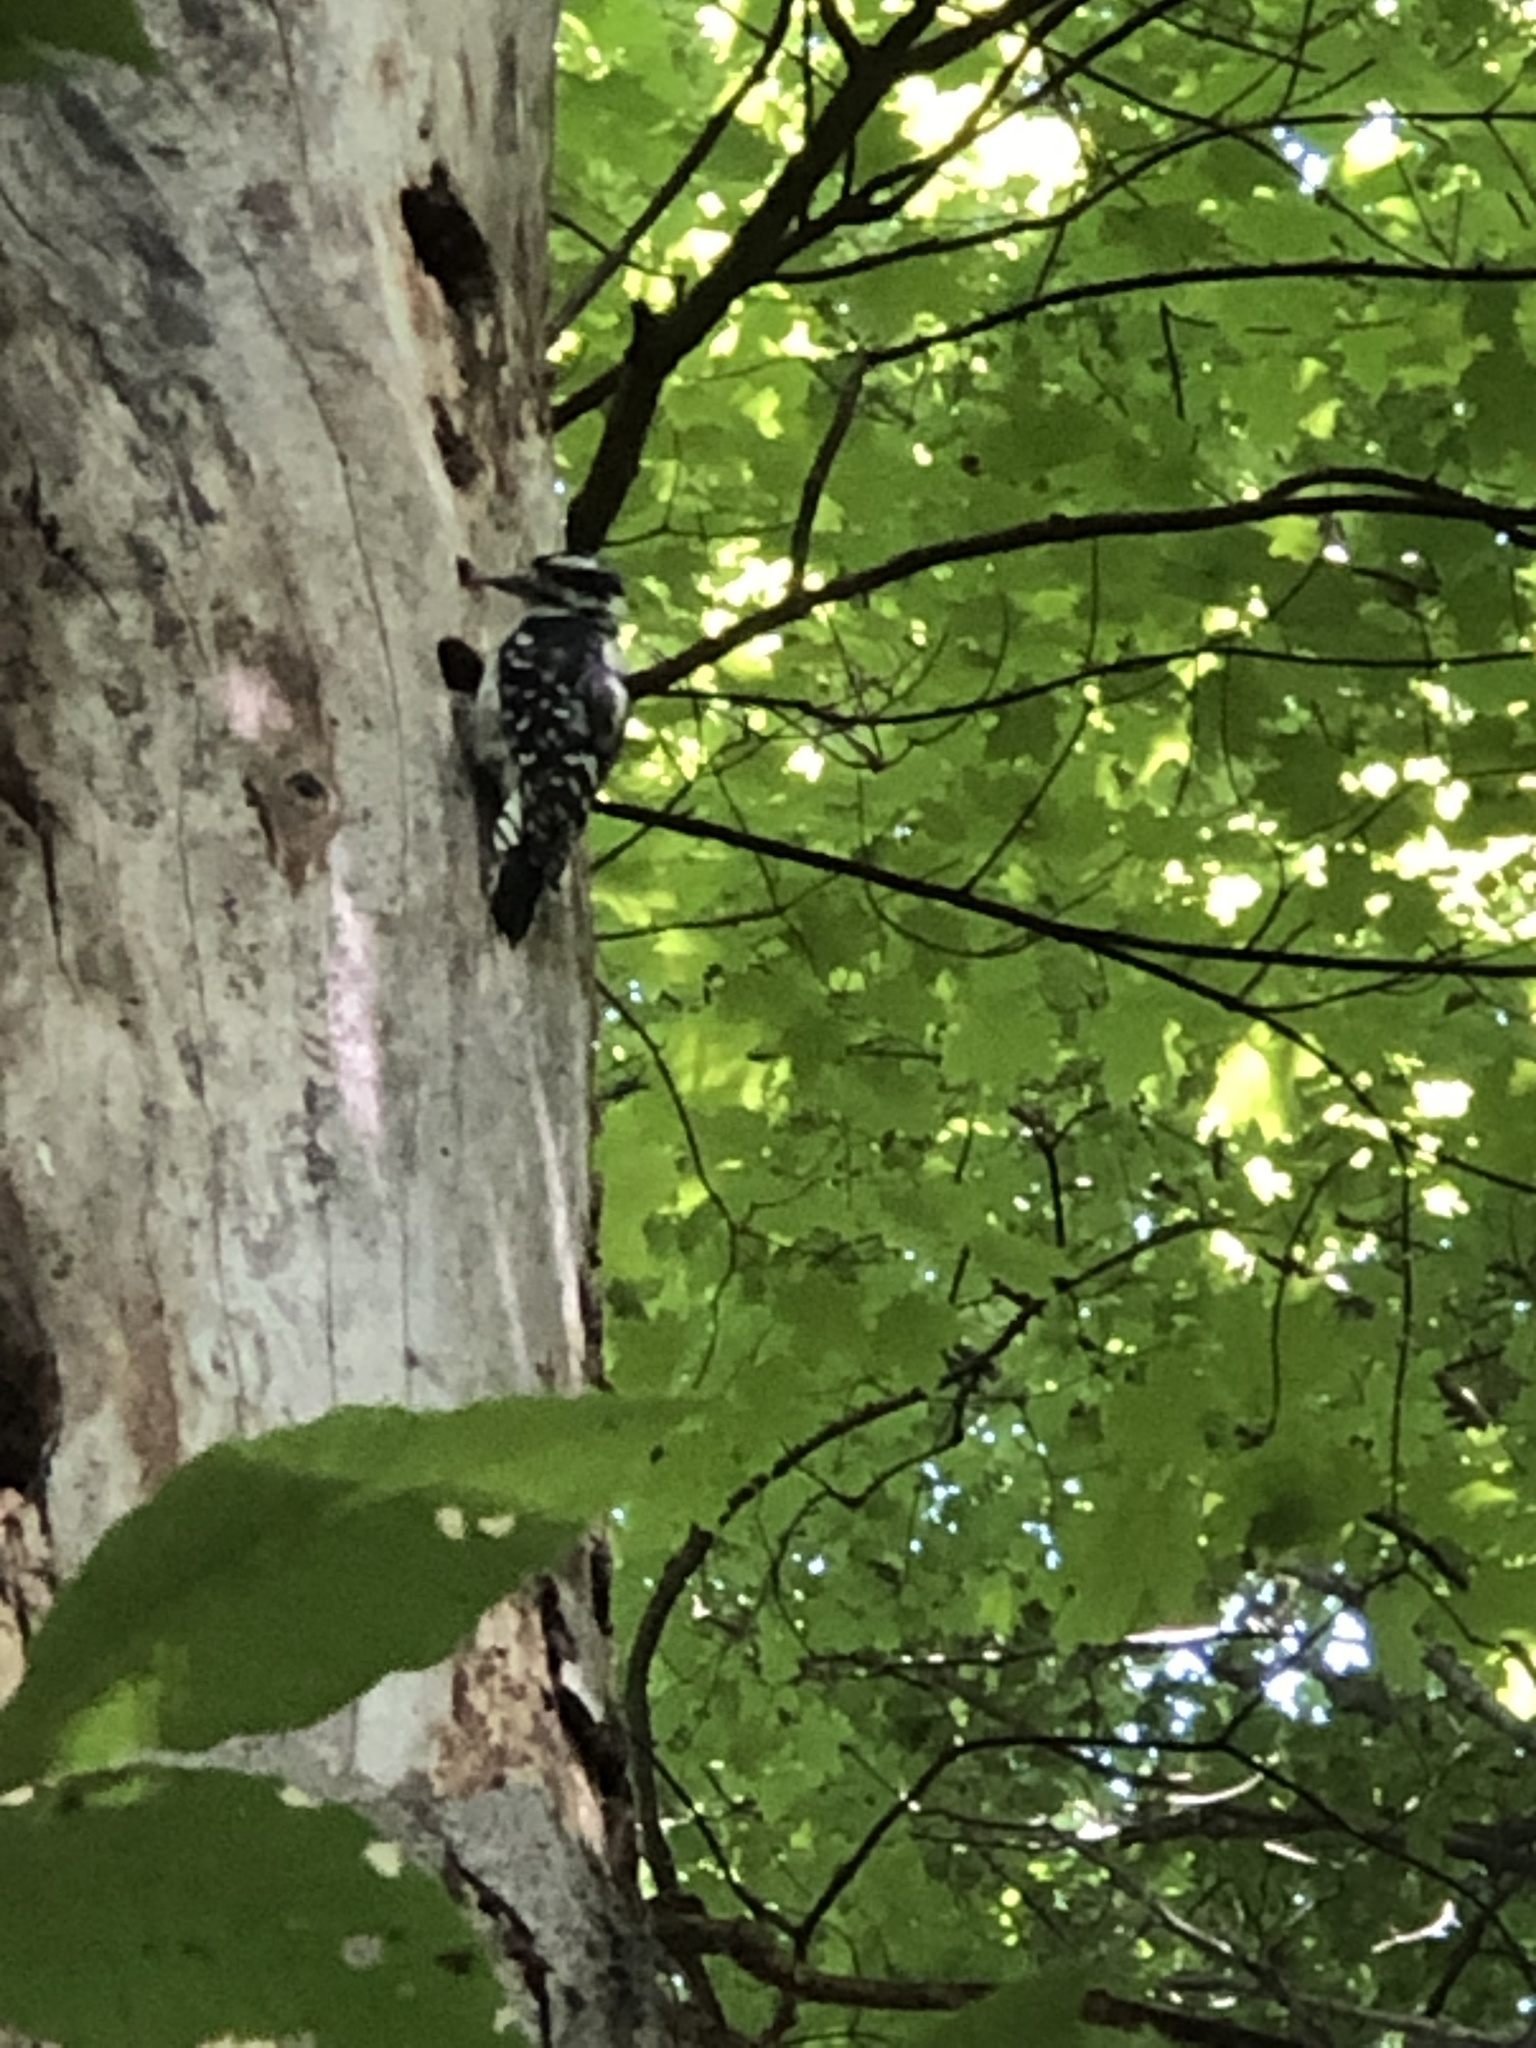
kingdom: Animalia
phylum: Chordata
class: Aves
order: Piciformes
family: Picidae
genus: Leuconotopicus
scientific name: Leuconotopicus villosus
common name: Hairy woodpecker
